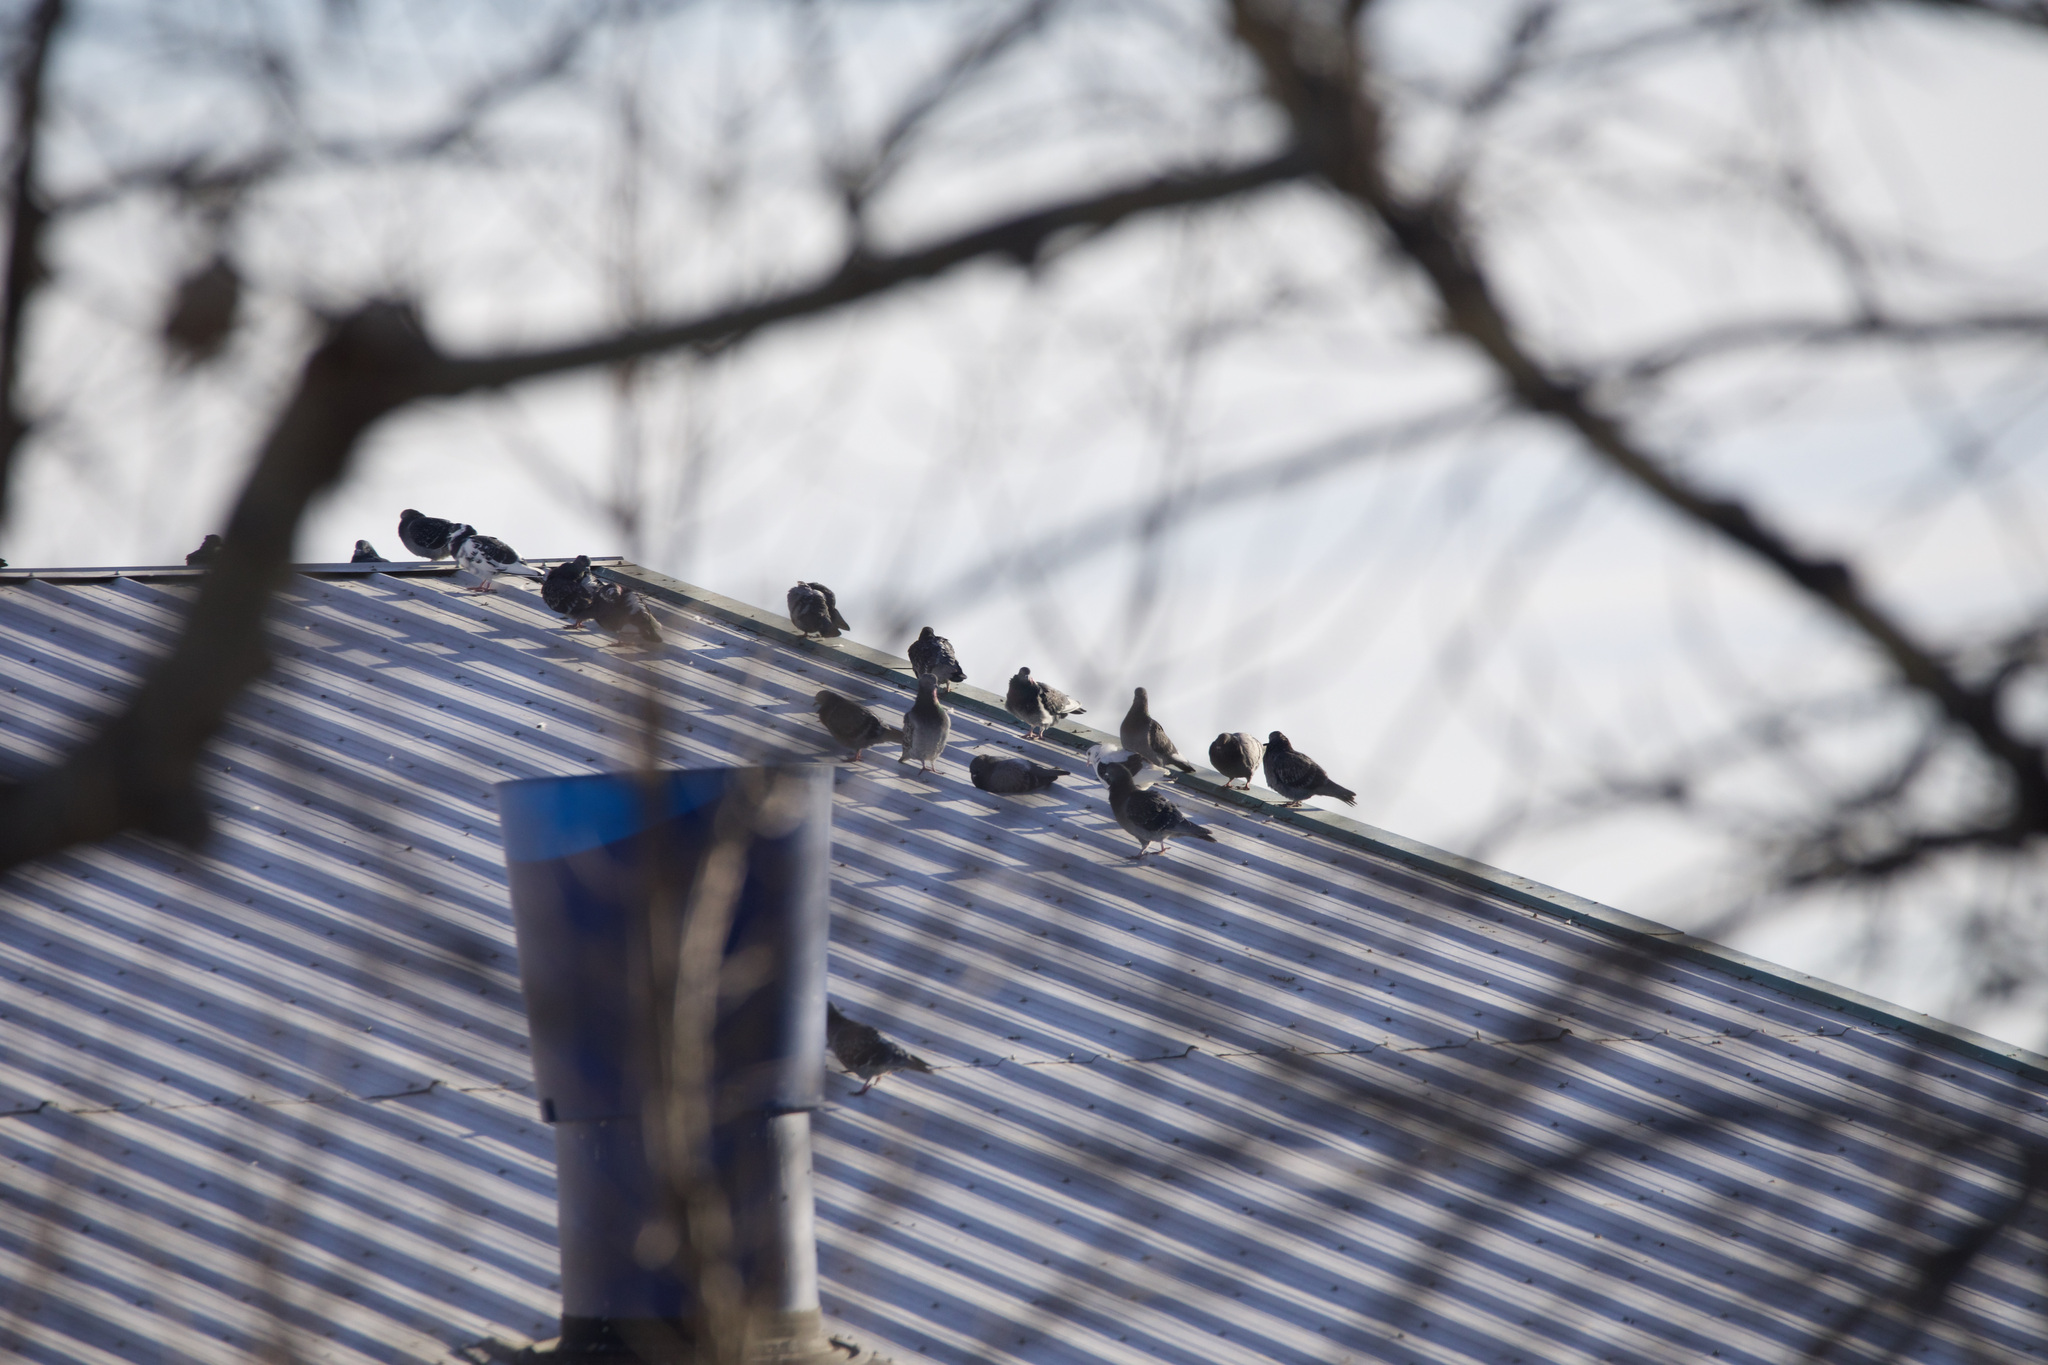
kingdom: Animalia
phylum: Chordata
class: Aves
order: Columbiformes
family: Columbidae
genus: Columba
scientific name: Columba livia
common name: Rock pigeon
